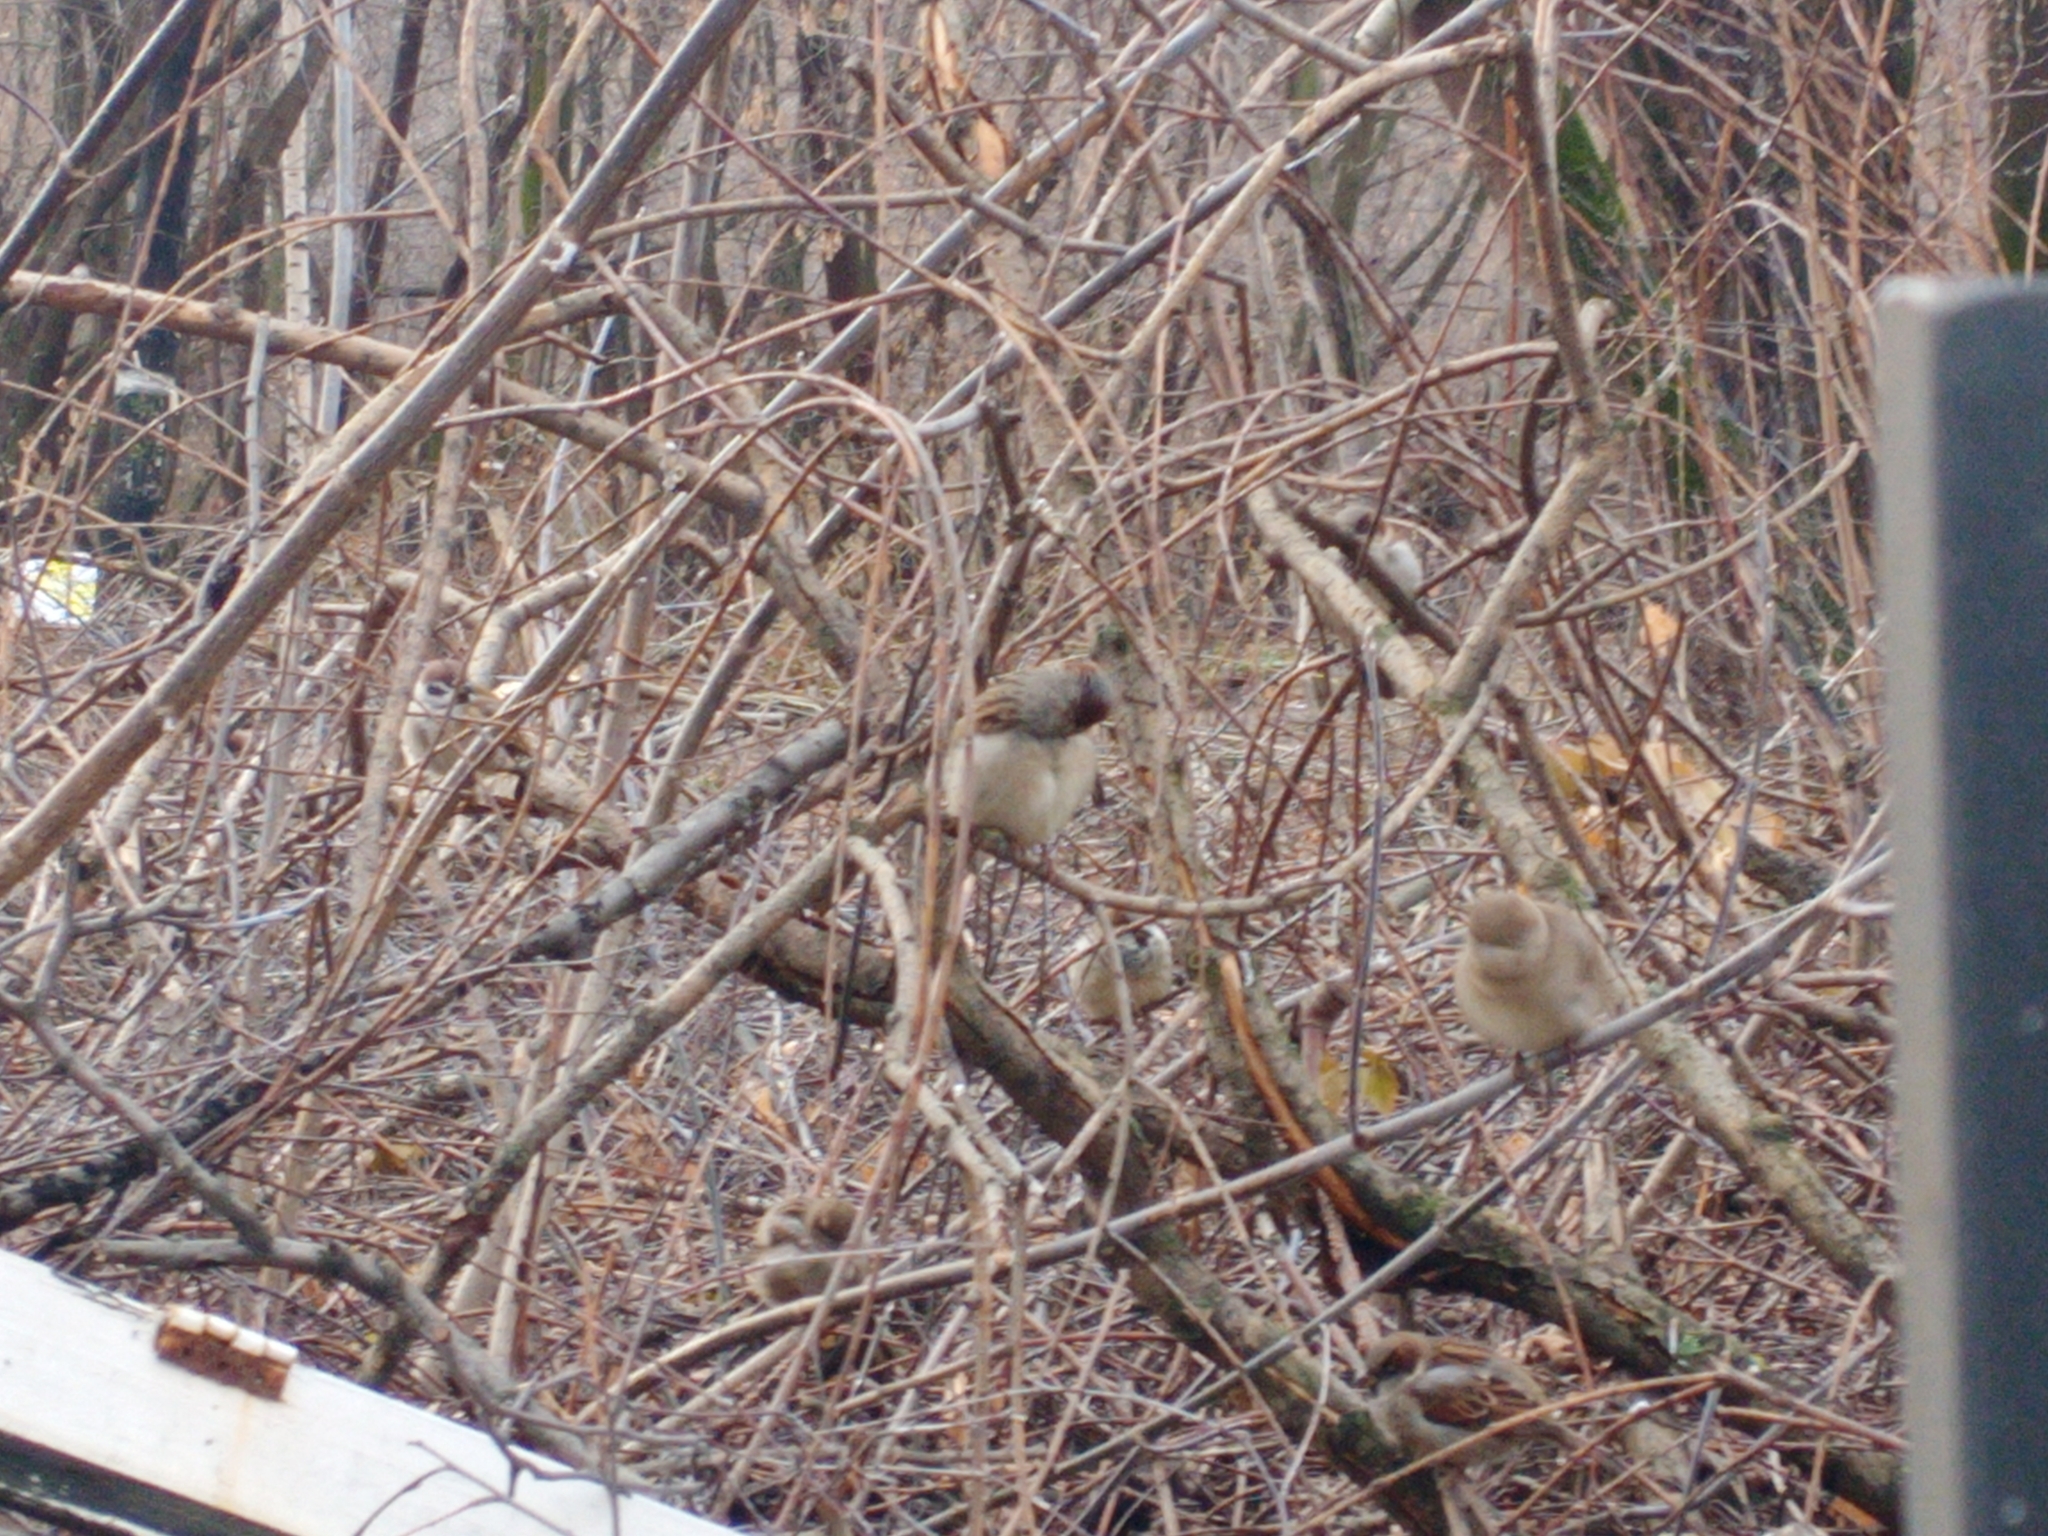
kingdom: Animalia
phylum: Chordata
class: Aves
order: Passeriformes
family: Passeridae
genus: Passer
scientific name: Passer domesticus
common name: House sparrow
